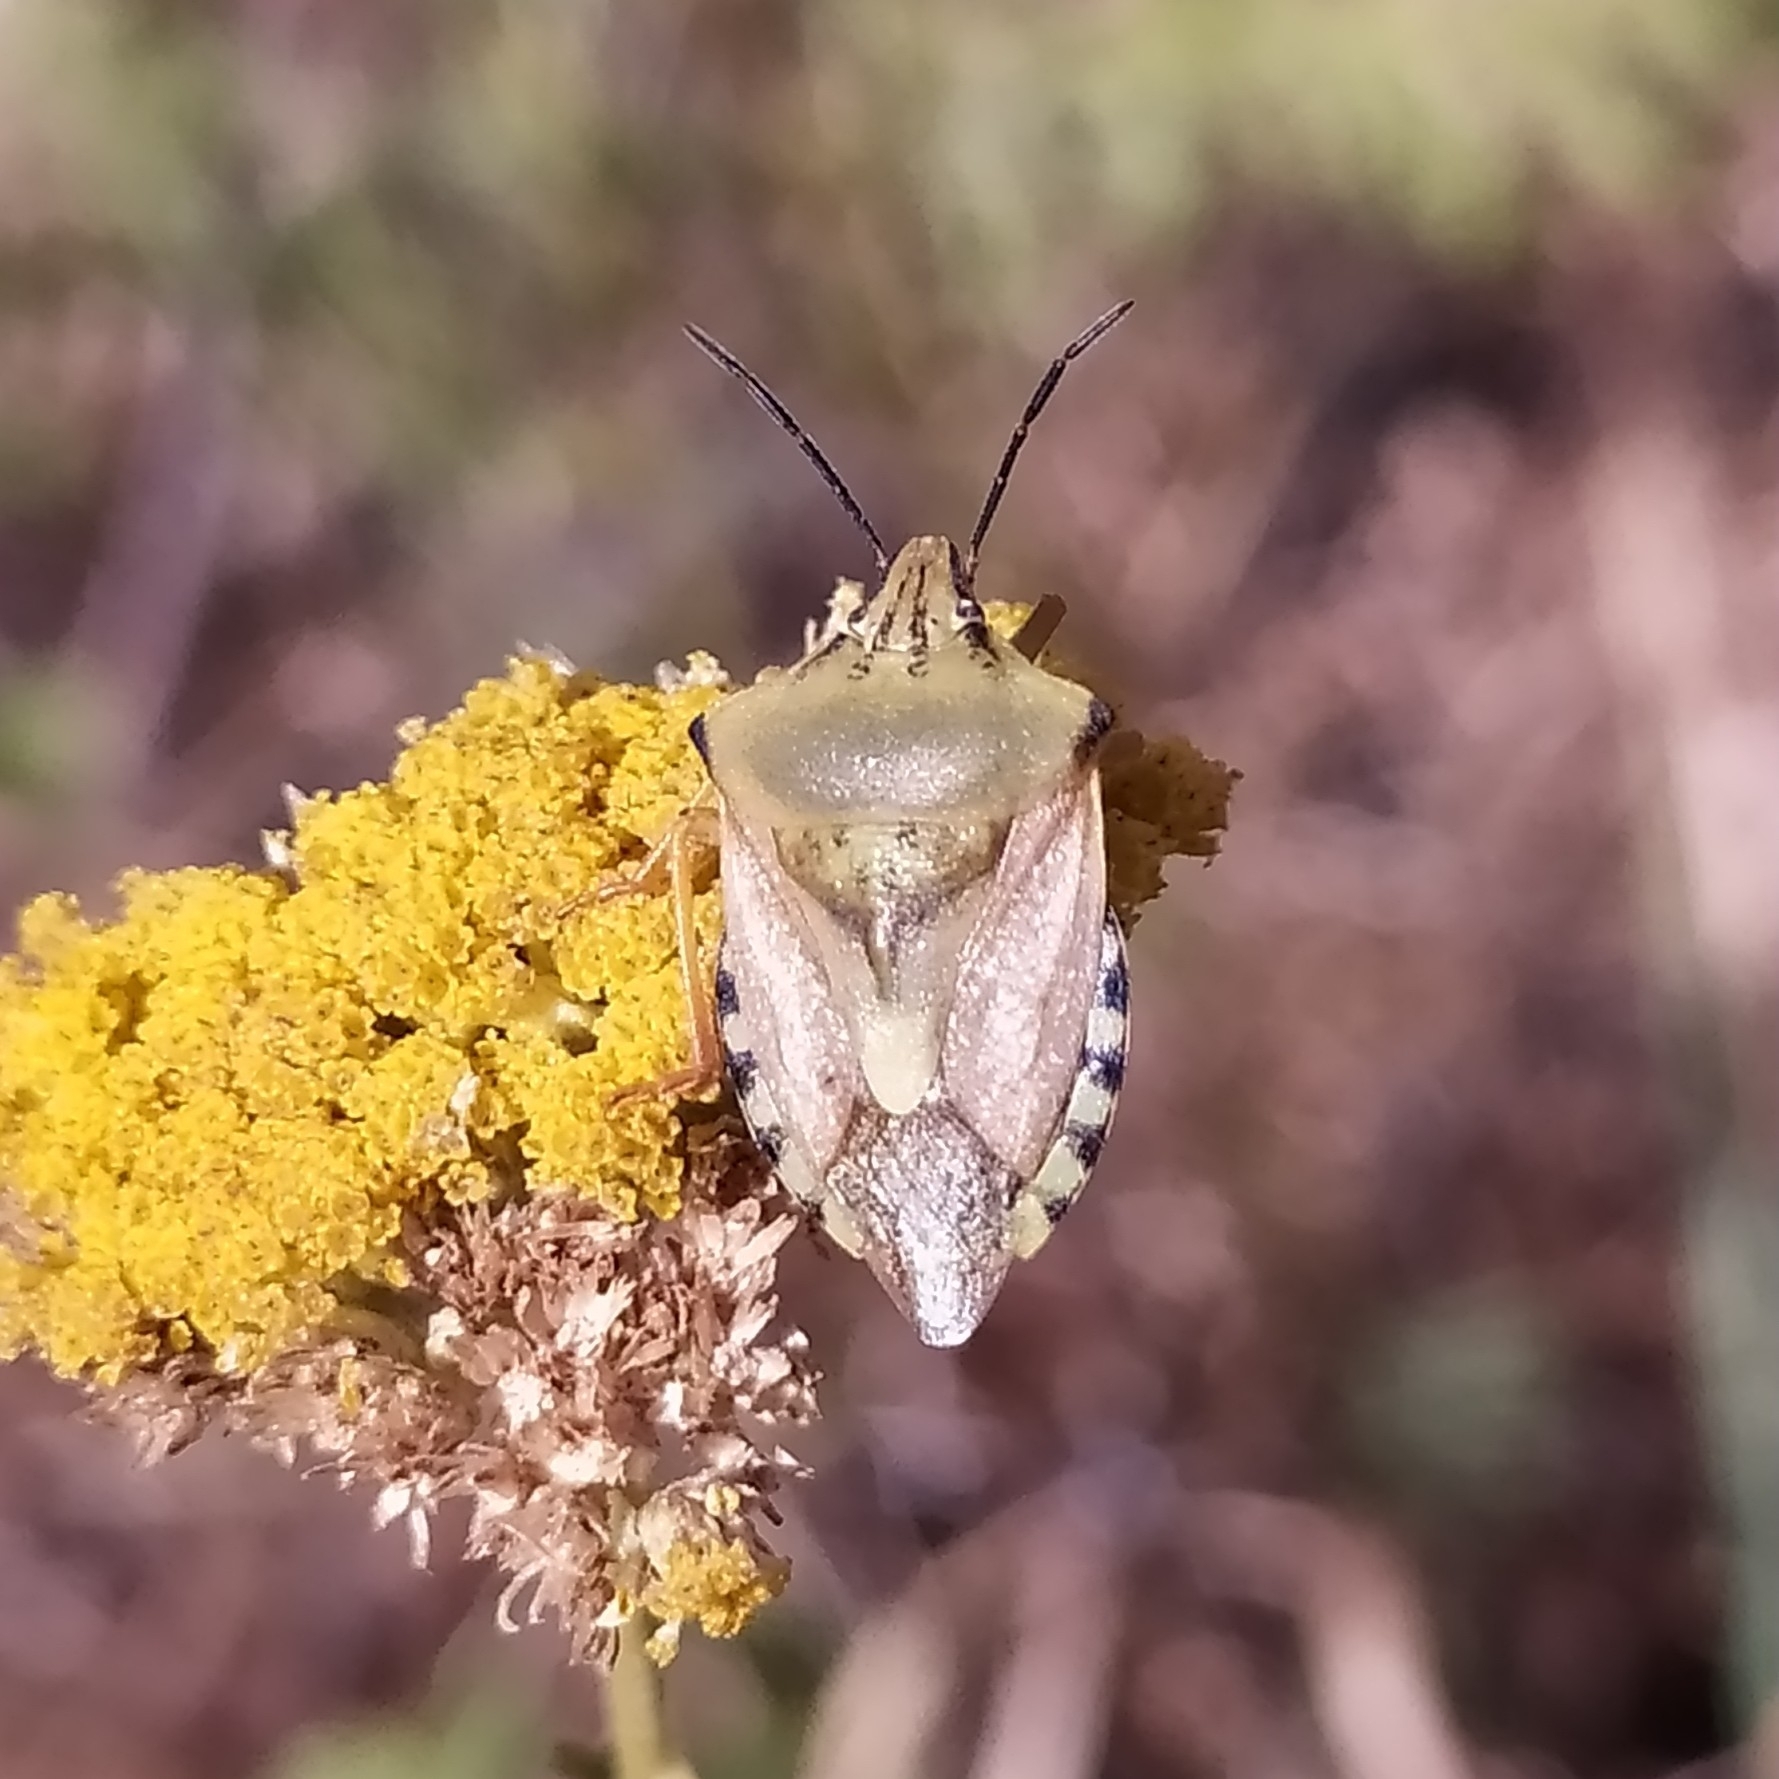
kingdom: Animalia
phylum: Arthropoda
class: Insecta
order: Hemiptera
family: Pentatomidae
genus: Carpocoris
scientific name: Carpocoris coreanus
